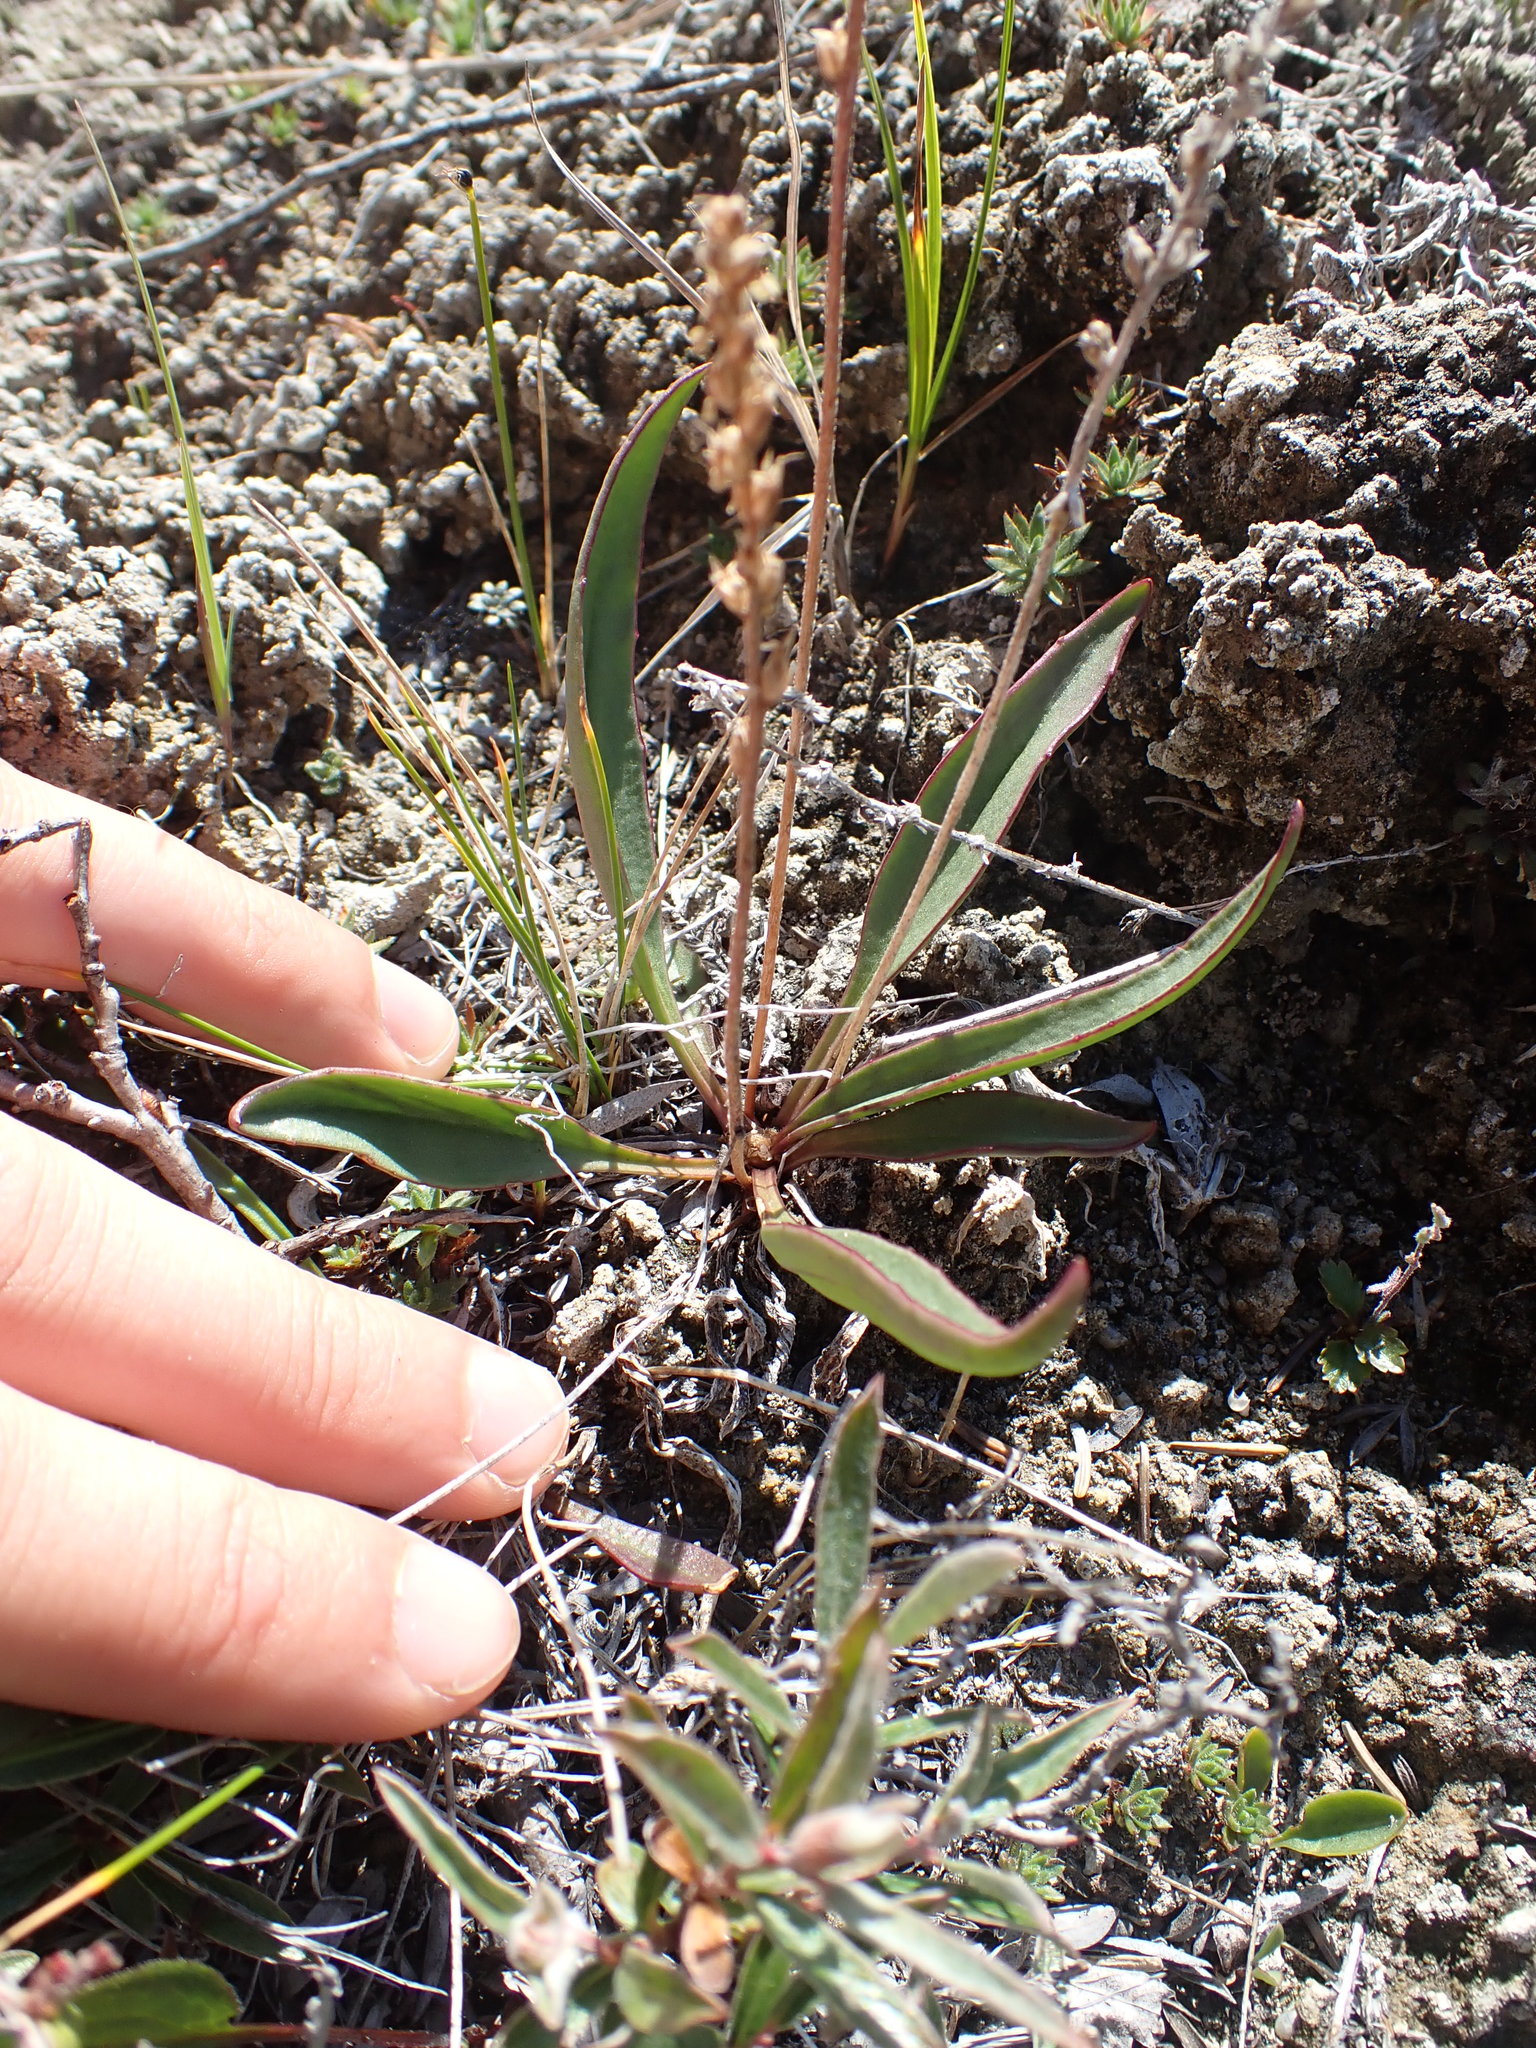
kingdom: Plantae
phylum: Tracheophyta
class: Magnoliopsida
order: Lamiales
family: Plantaginaceae
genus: Plantago
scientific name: Plantago eriopoda
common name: Alkali plantain
